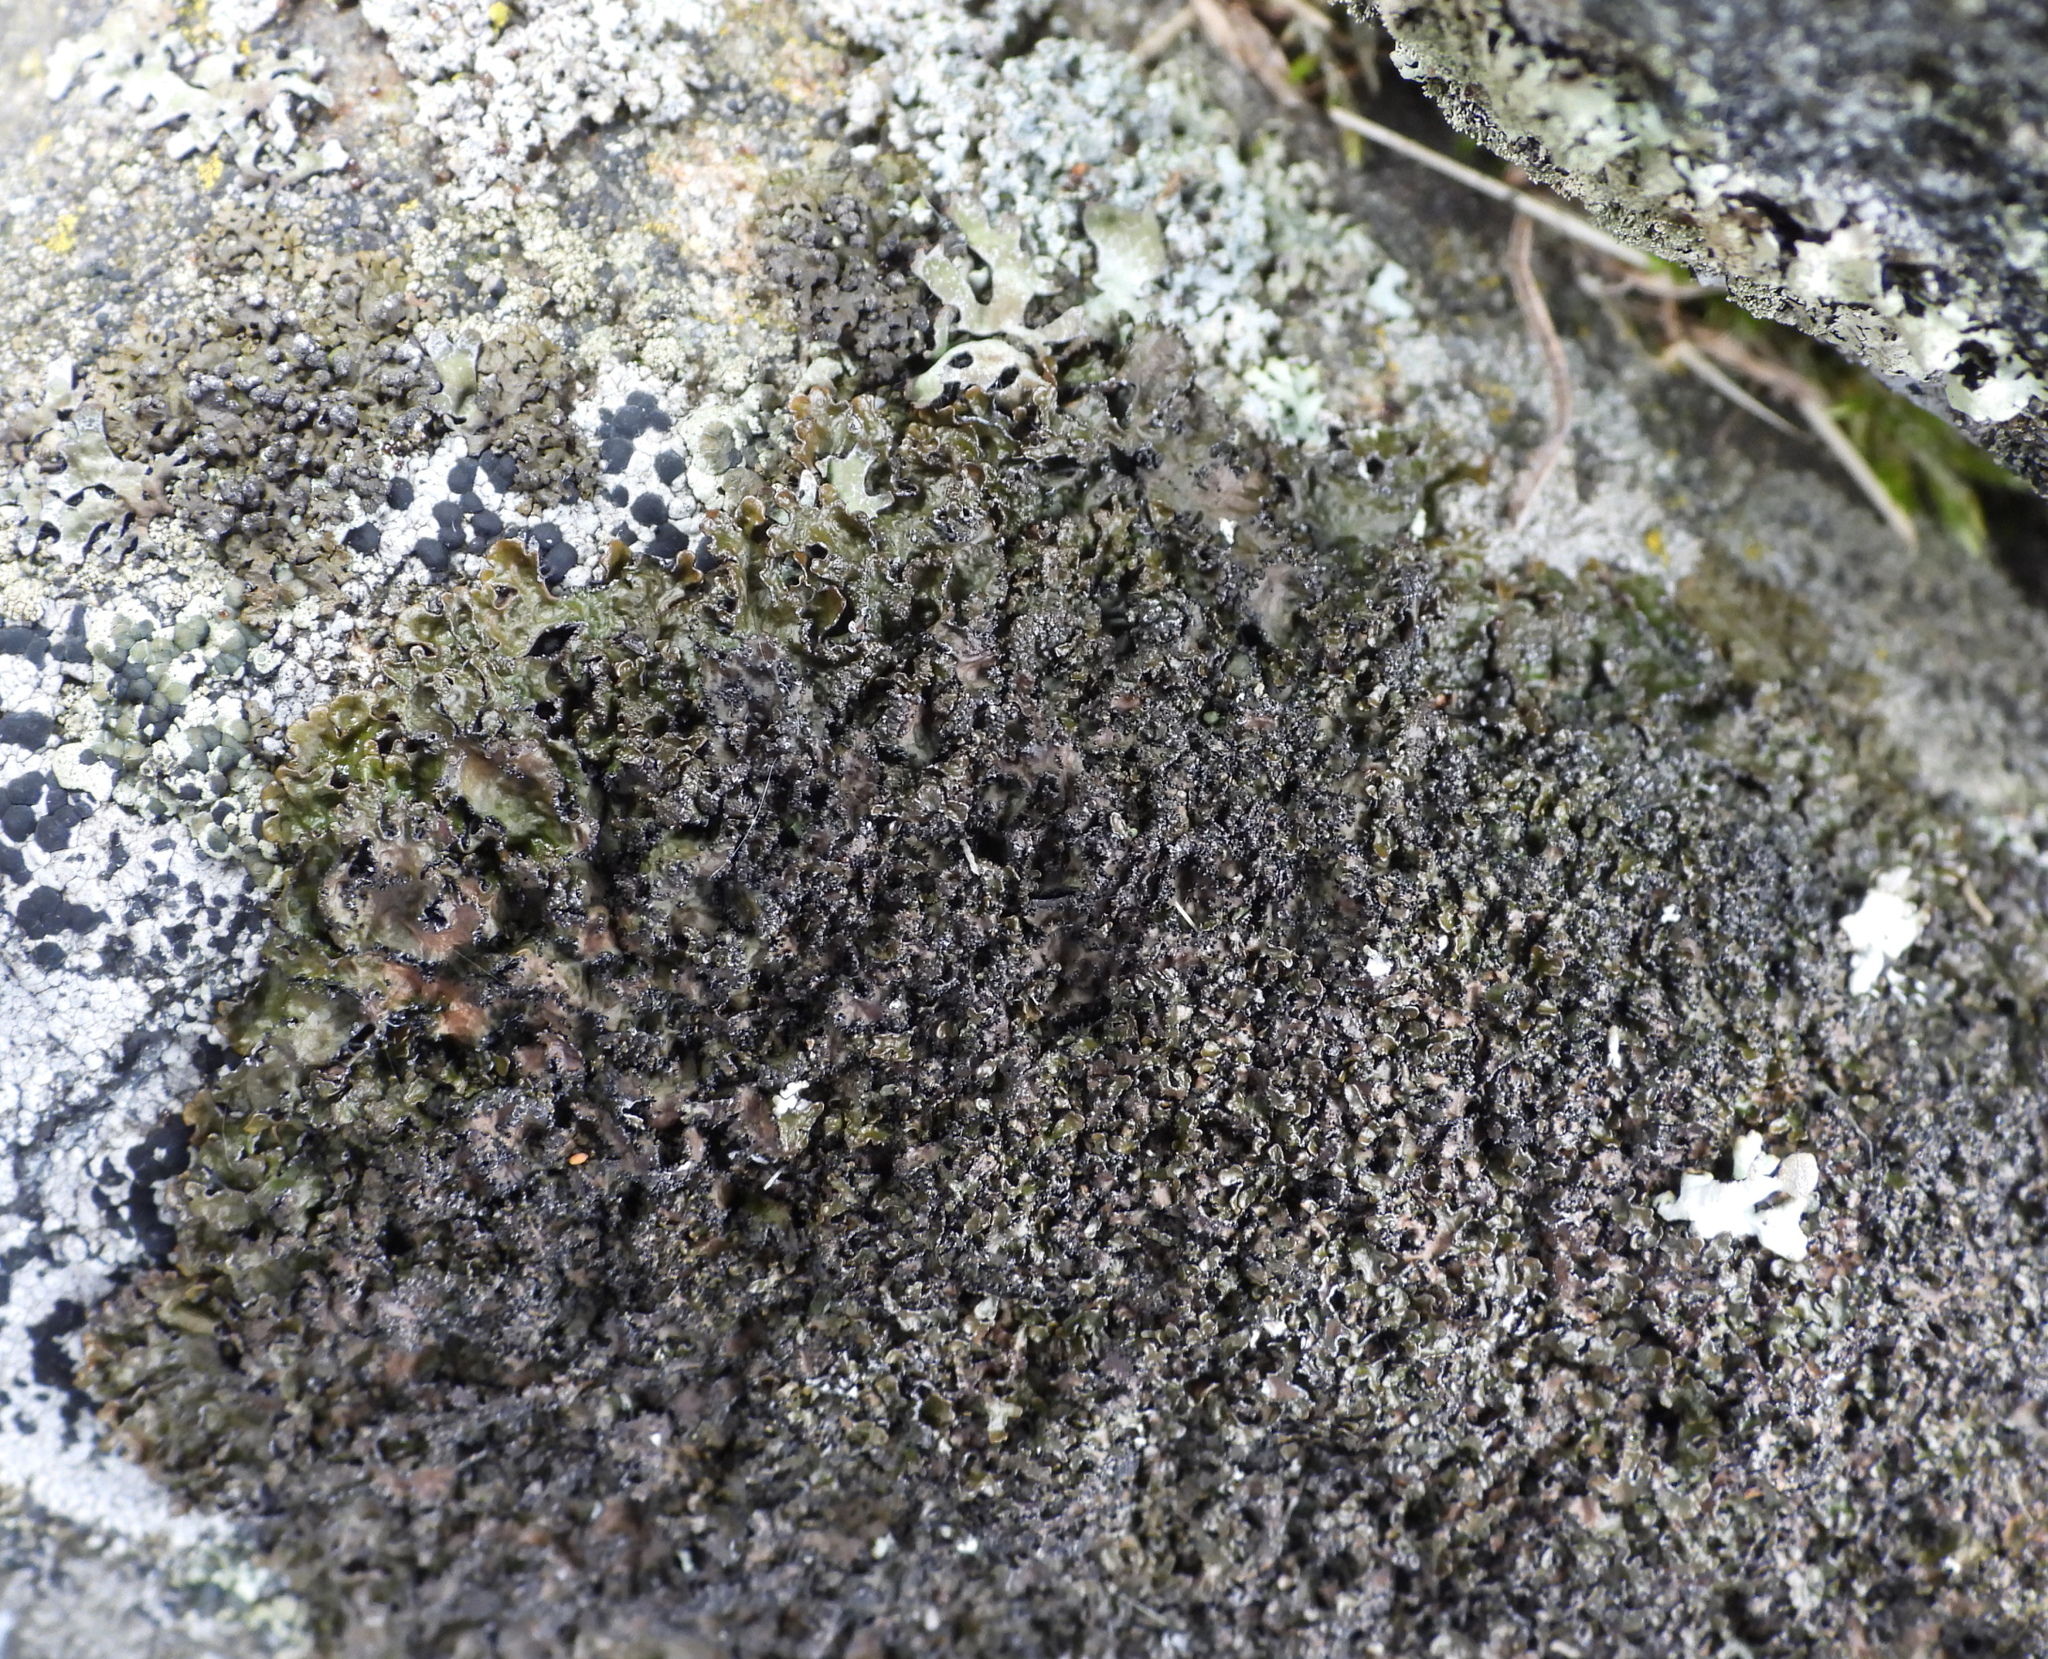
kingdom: Fungi
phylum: Ascomycota
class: Lecanoromycetes
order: Lecanorales
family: Parmeliaceae
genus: Melanelia
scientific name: Melanelia hepatizon
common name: Rimmed camouflage lichen
